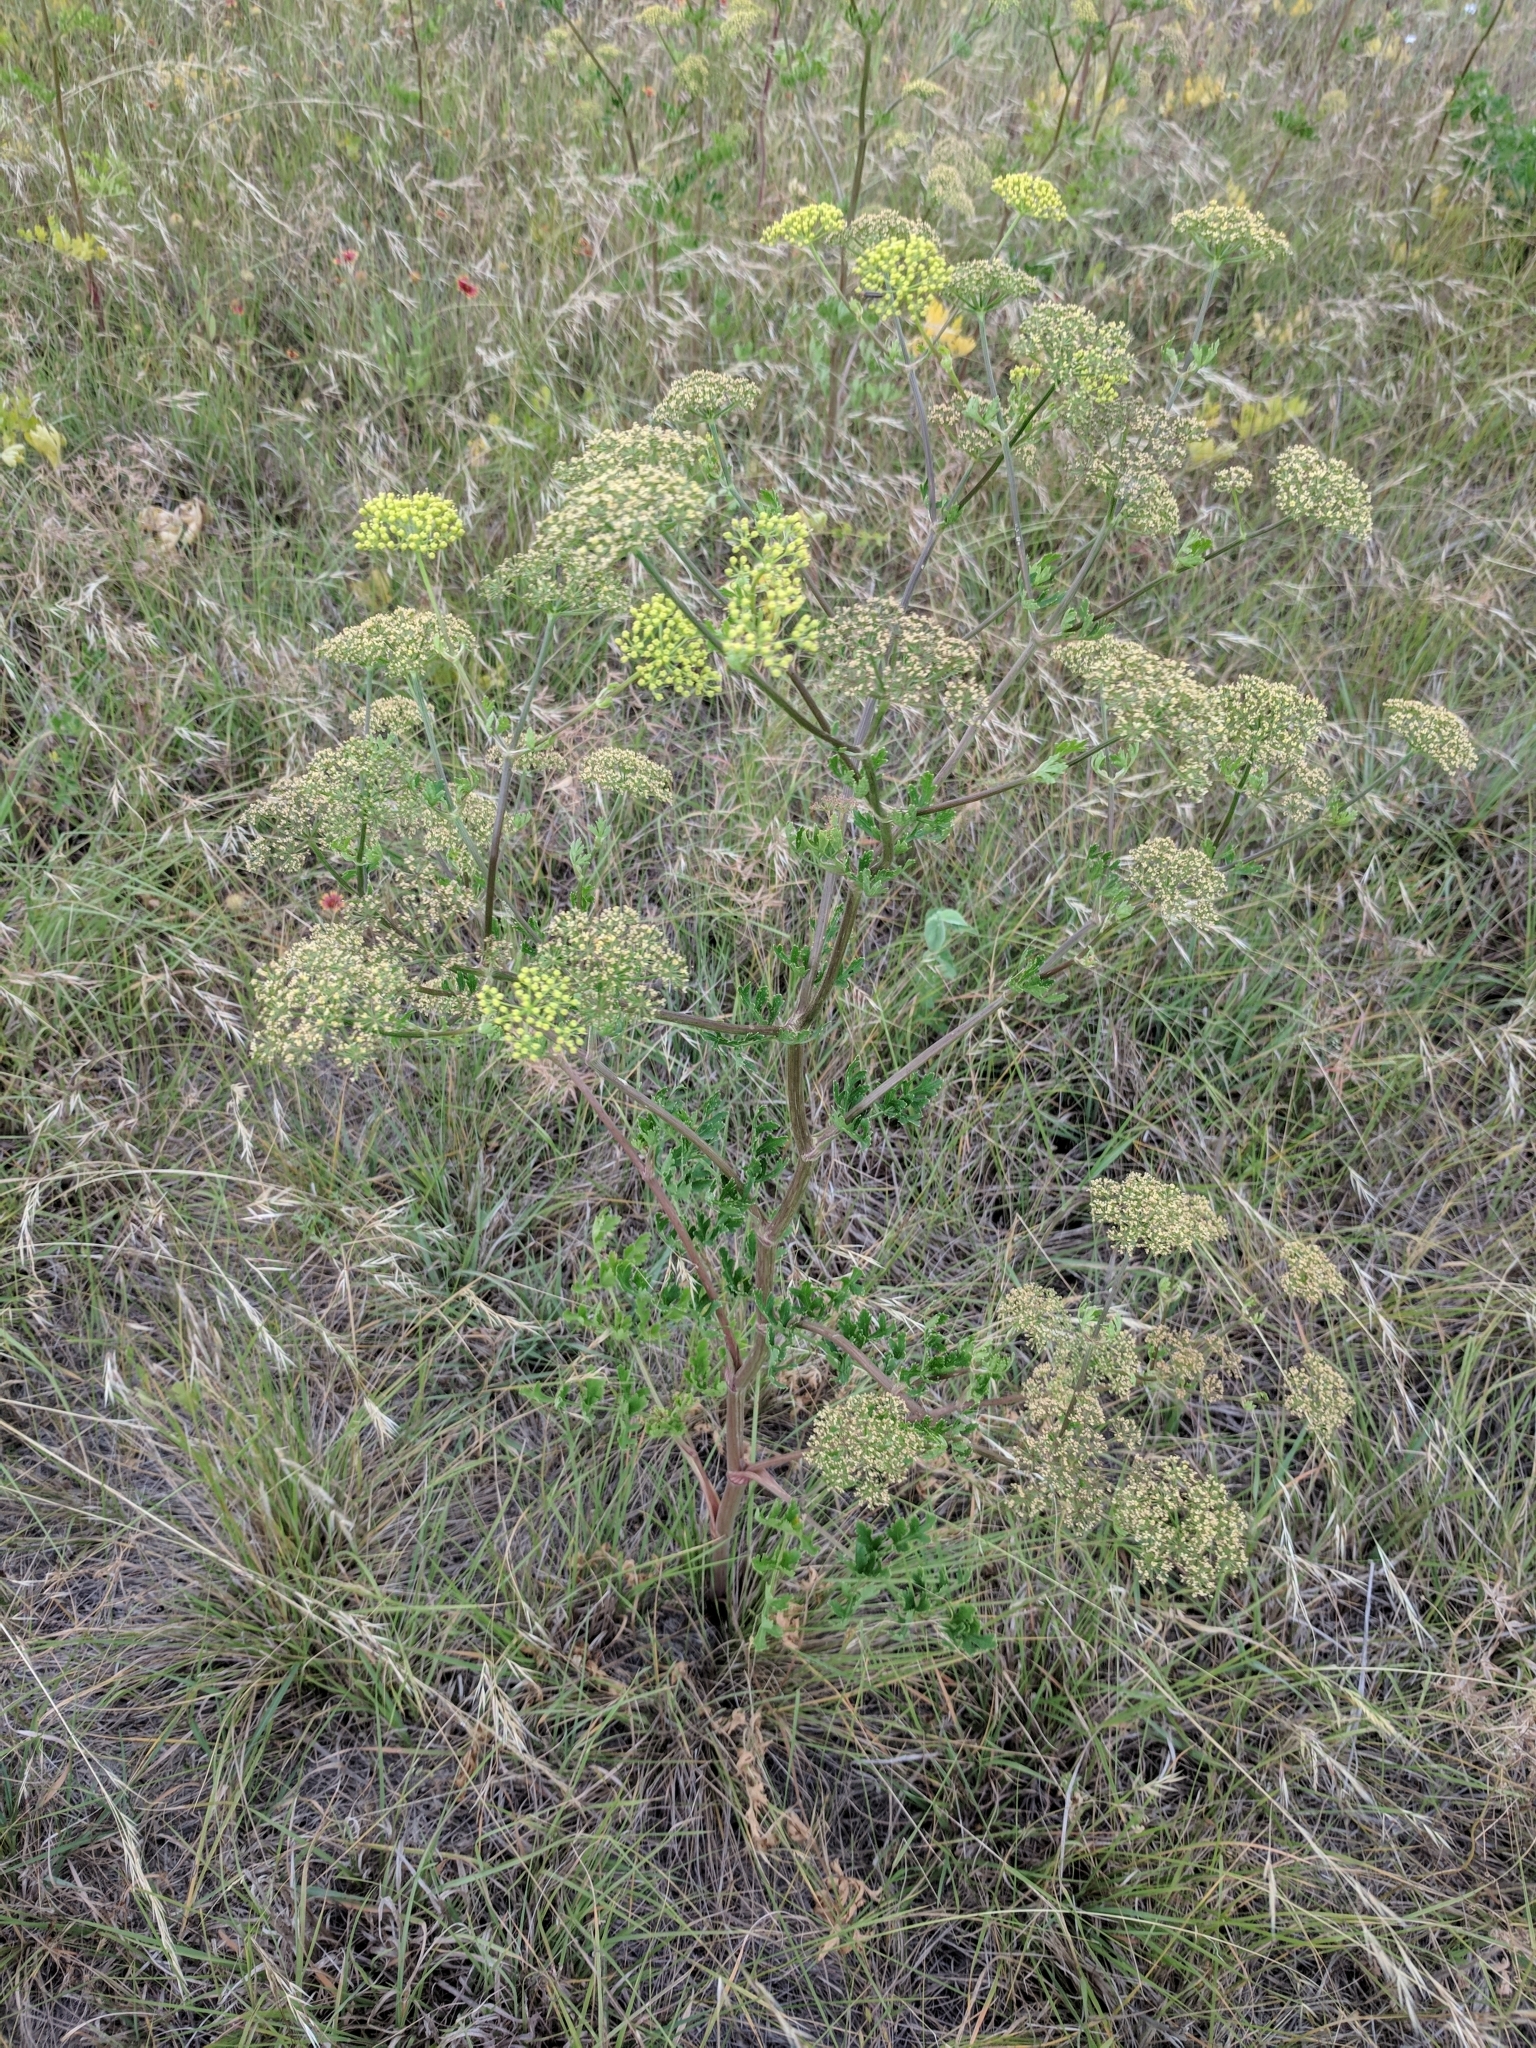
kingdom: Plantae
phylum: Tracheophyta
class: Magnoliopsida
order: Apiales
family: Apiaceae
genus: Polytaenia
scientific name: Polytaenia texana
